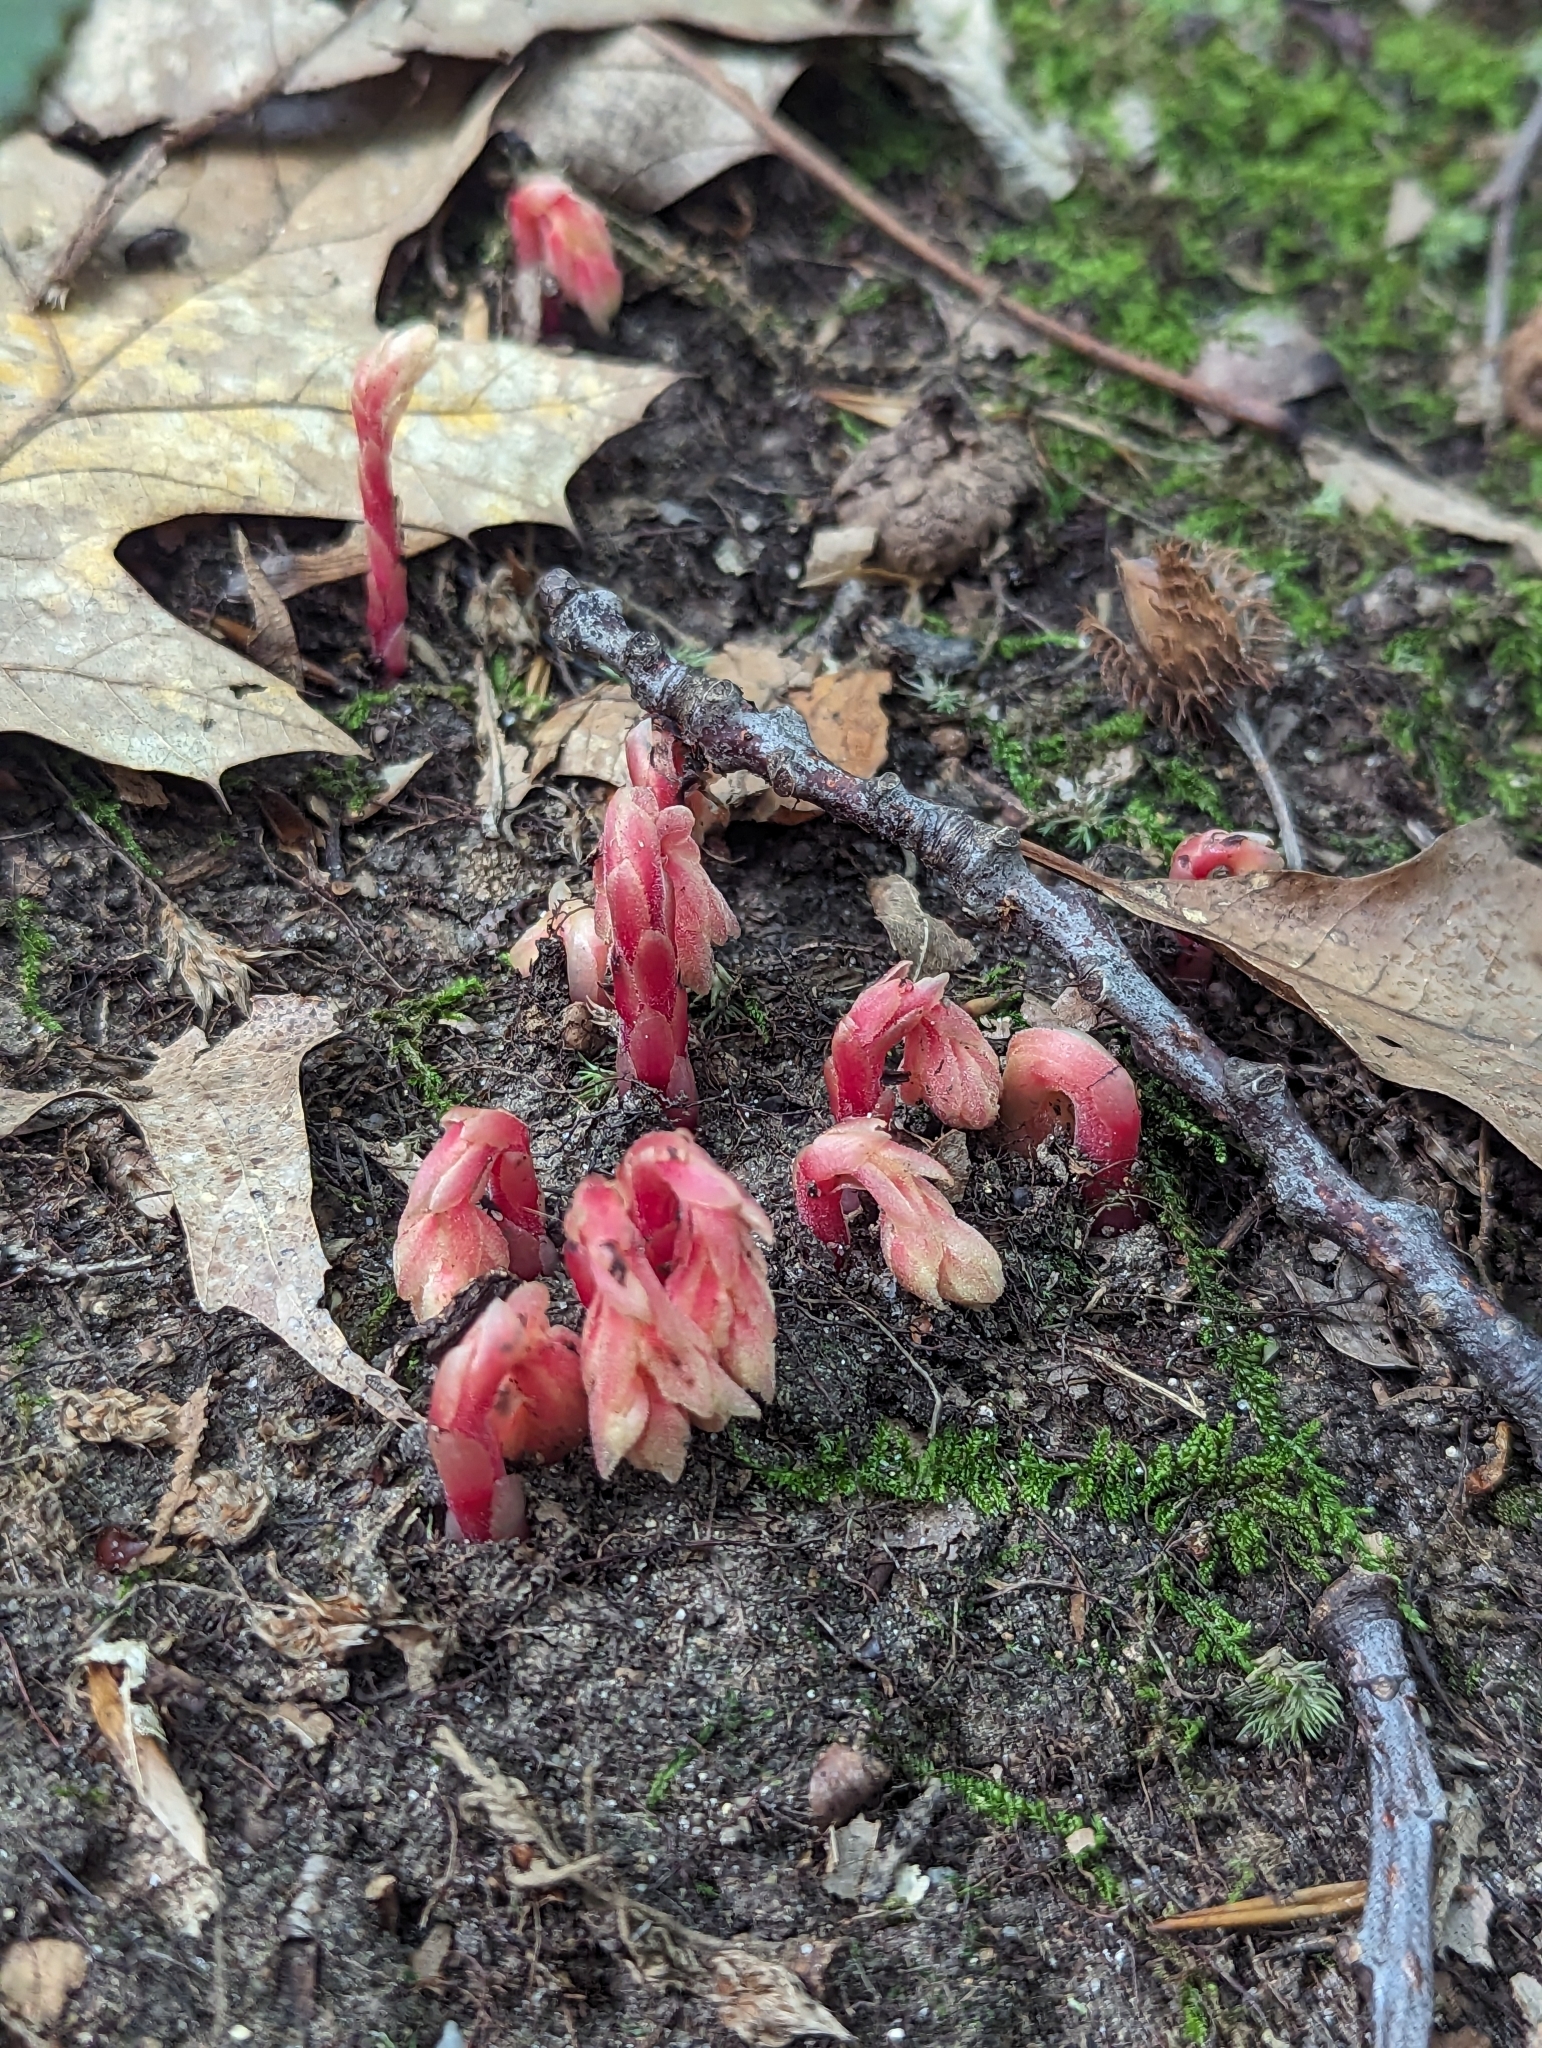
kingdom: Plantae
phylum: Tracheophyta
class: Magnoliopsida
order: Ericales
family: Ericaceae
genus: Hypopitys
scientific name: Hypopitys monotropa
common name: Yellow bird's-nest
